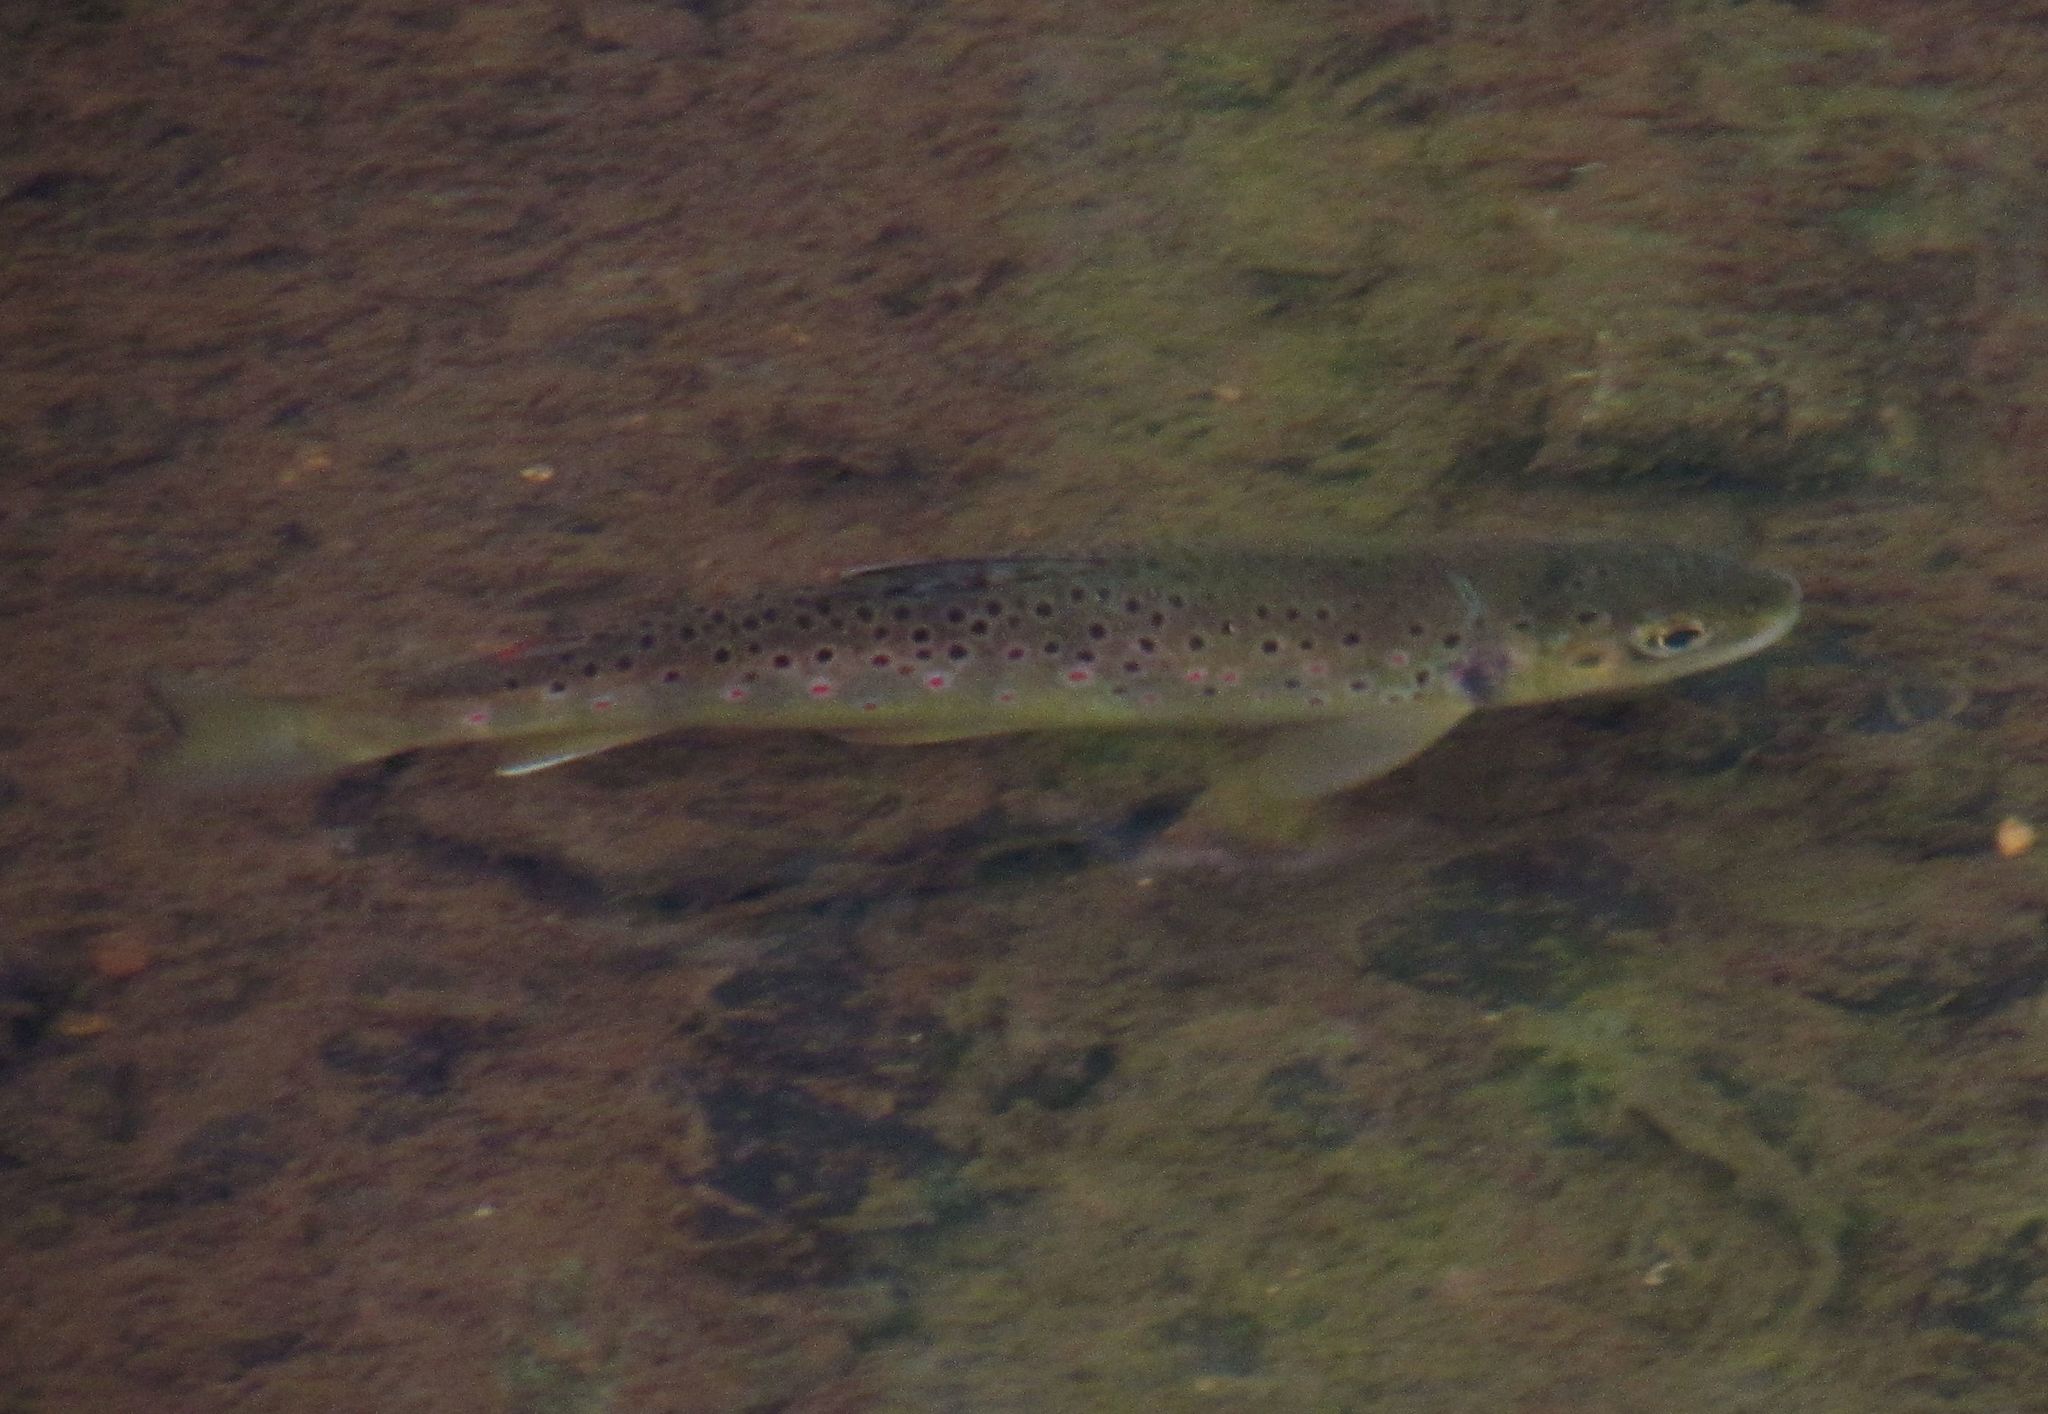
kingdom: Animalia
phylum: Chordata
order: Salmoniformes
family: Salmonidae
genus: Salmo
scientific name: Salmo trutta
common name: Brown trout
